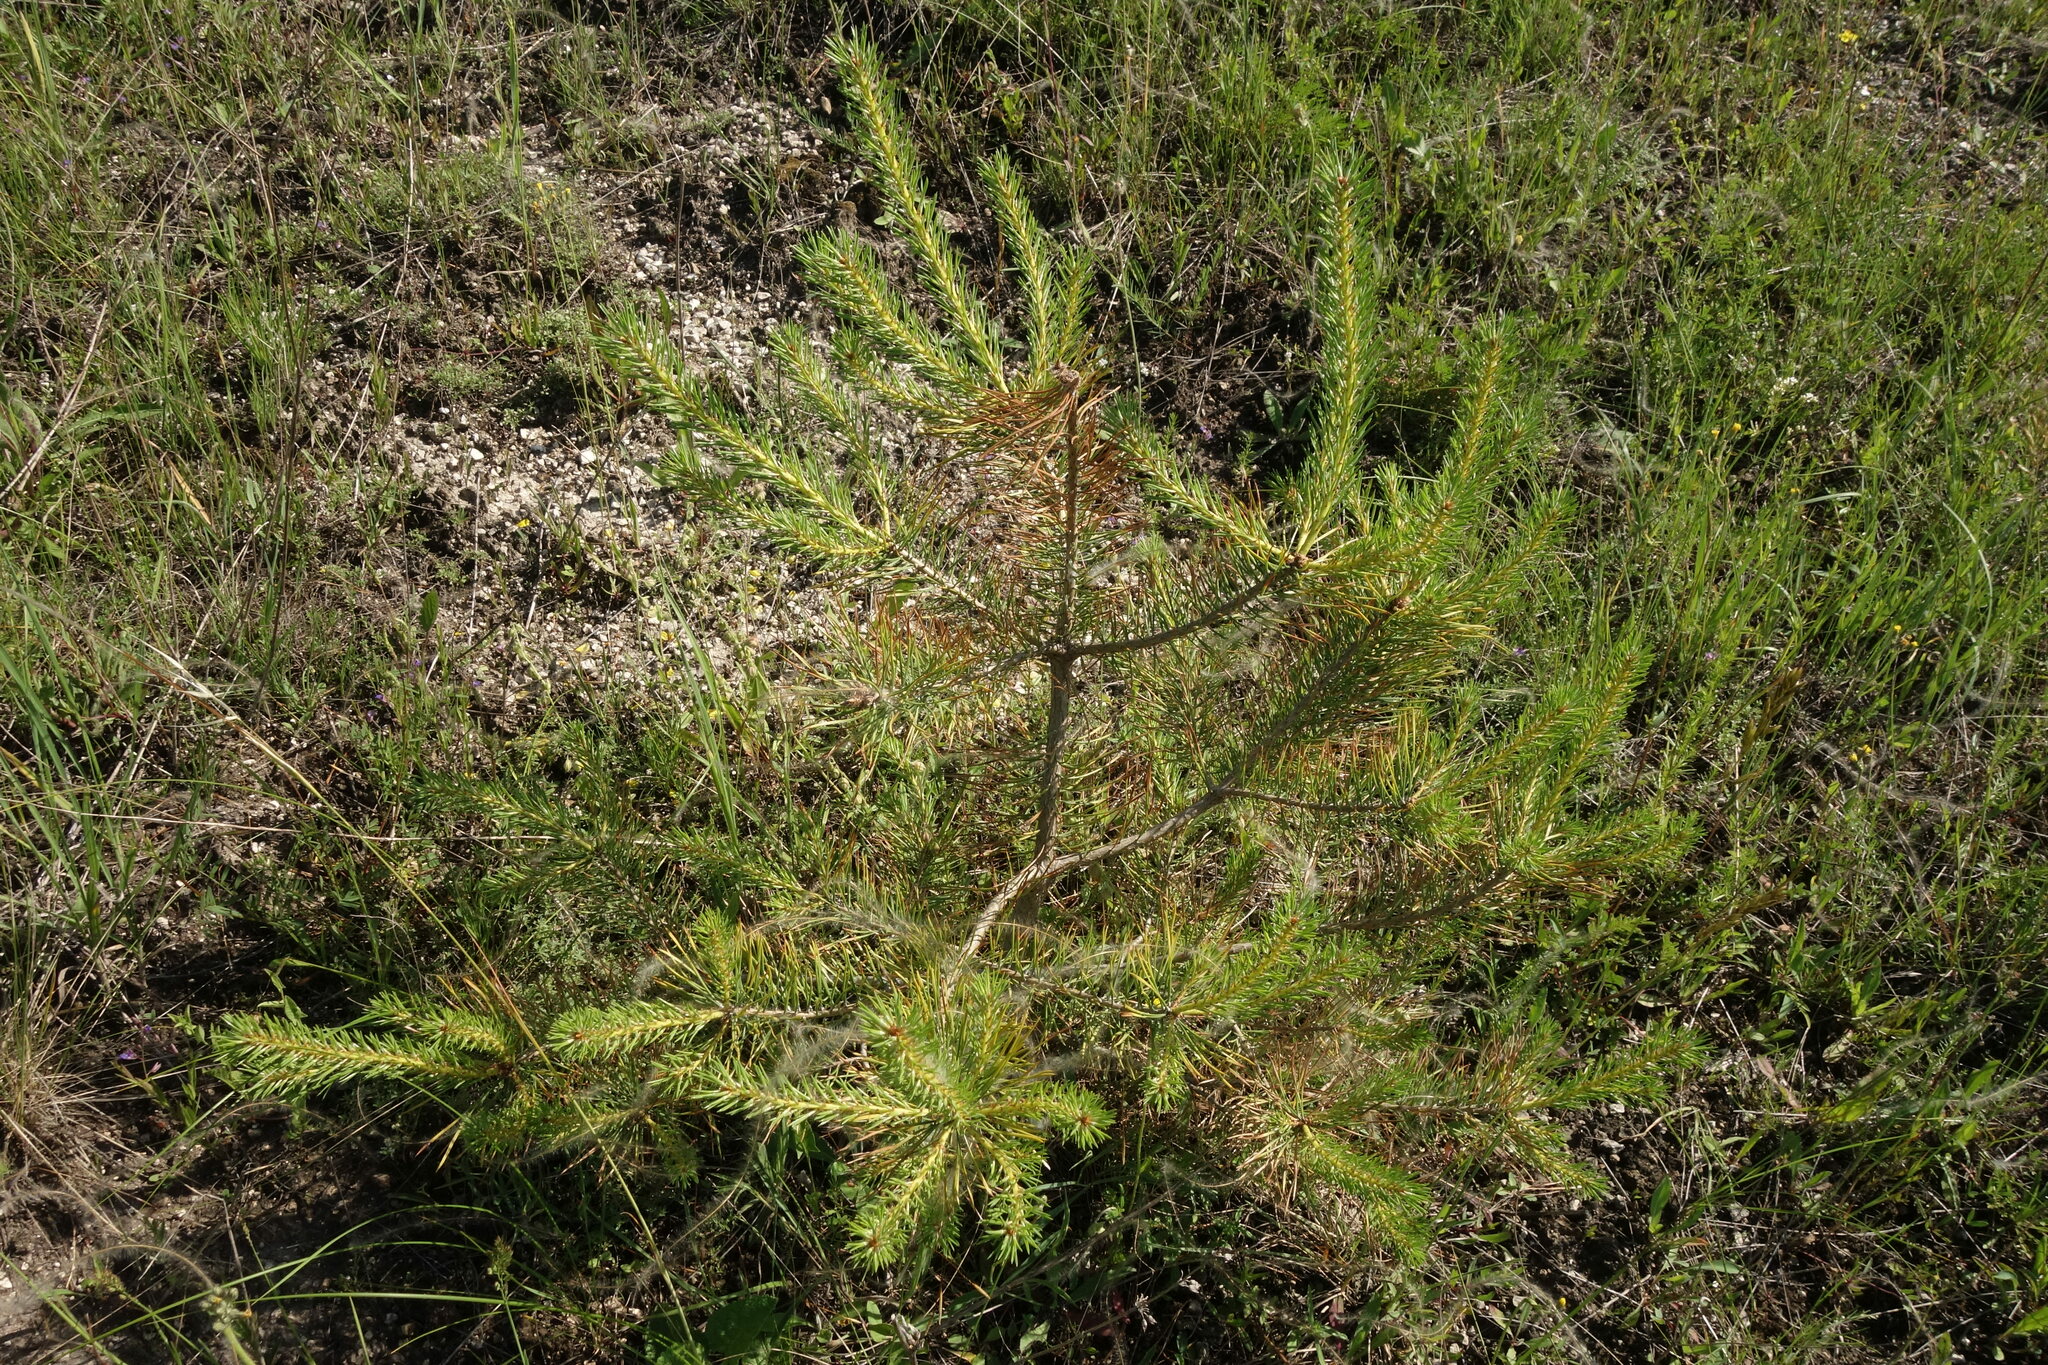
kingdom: Plantae
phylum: Tracheophyta
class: Pinopsida
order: Pinales
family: Pinaceae
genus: Pinus
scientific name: Pinus sylvestris
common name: Scots pine
